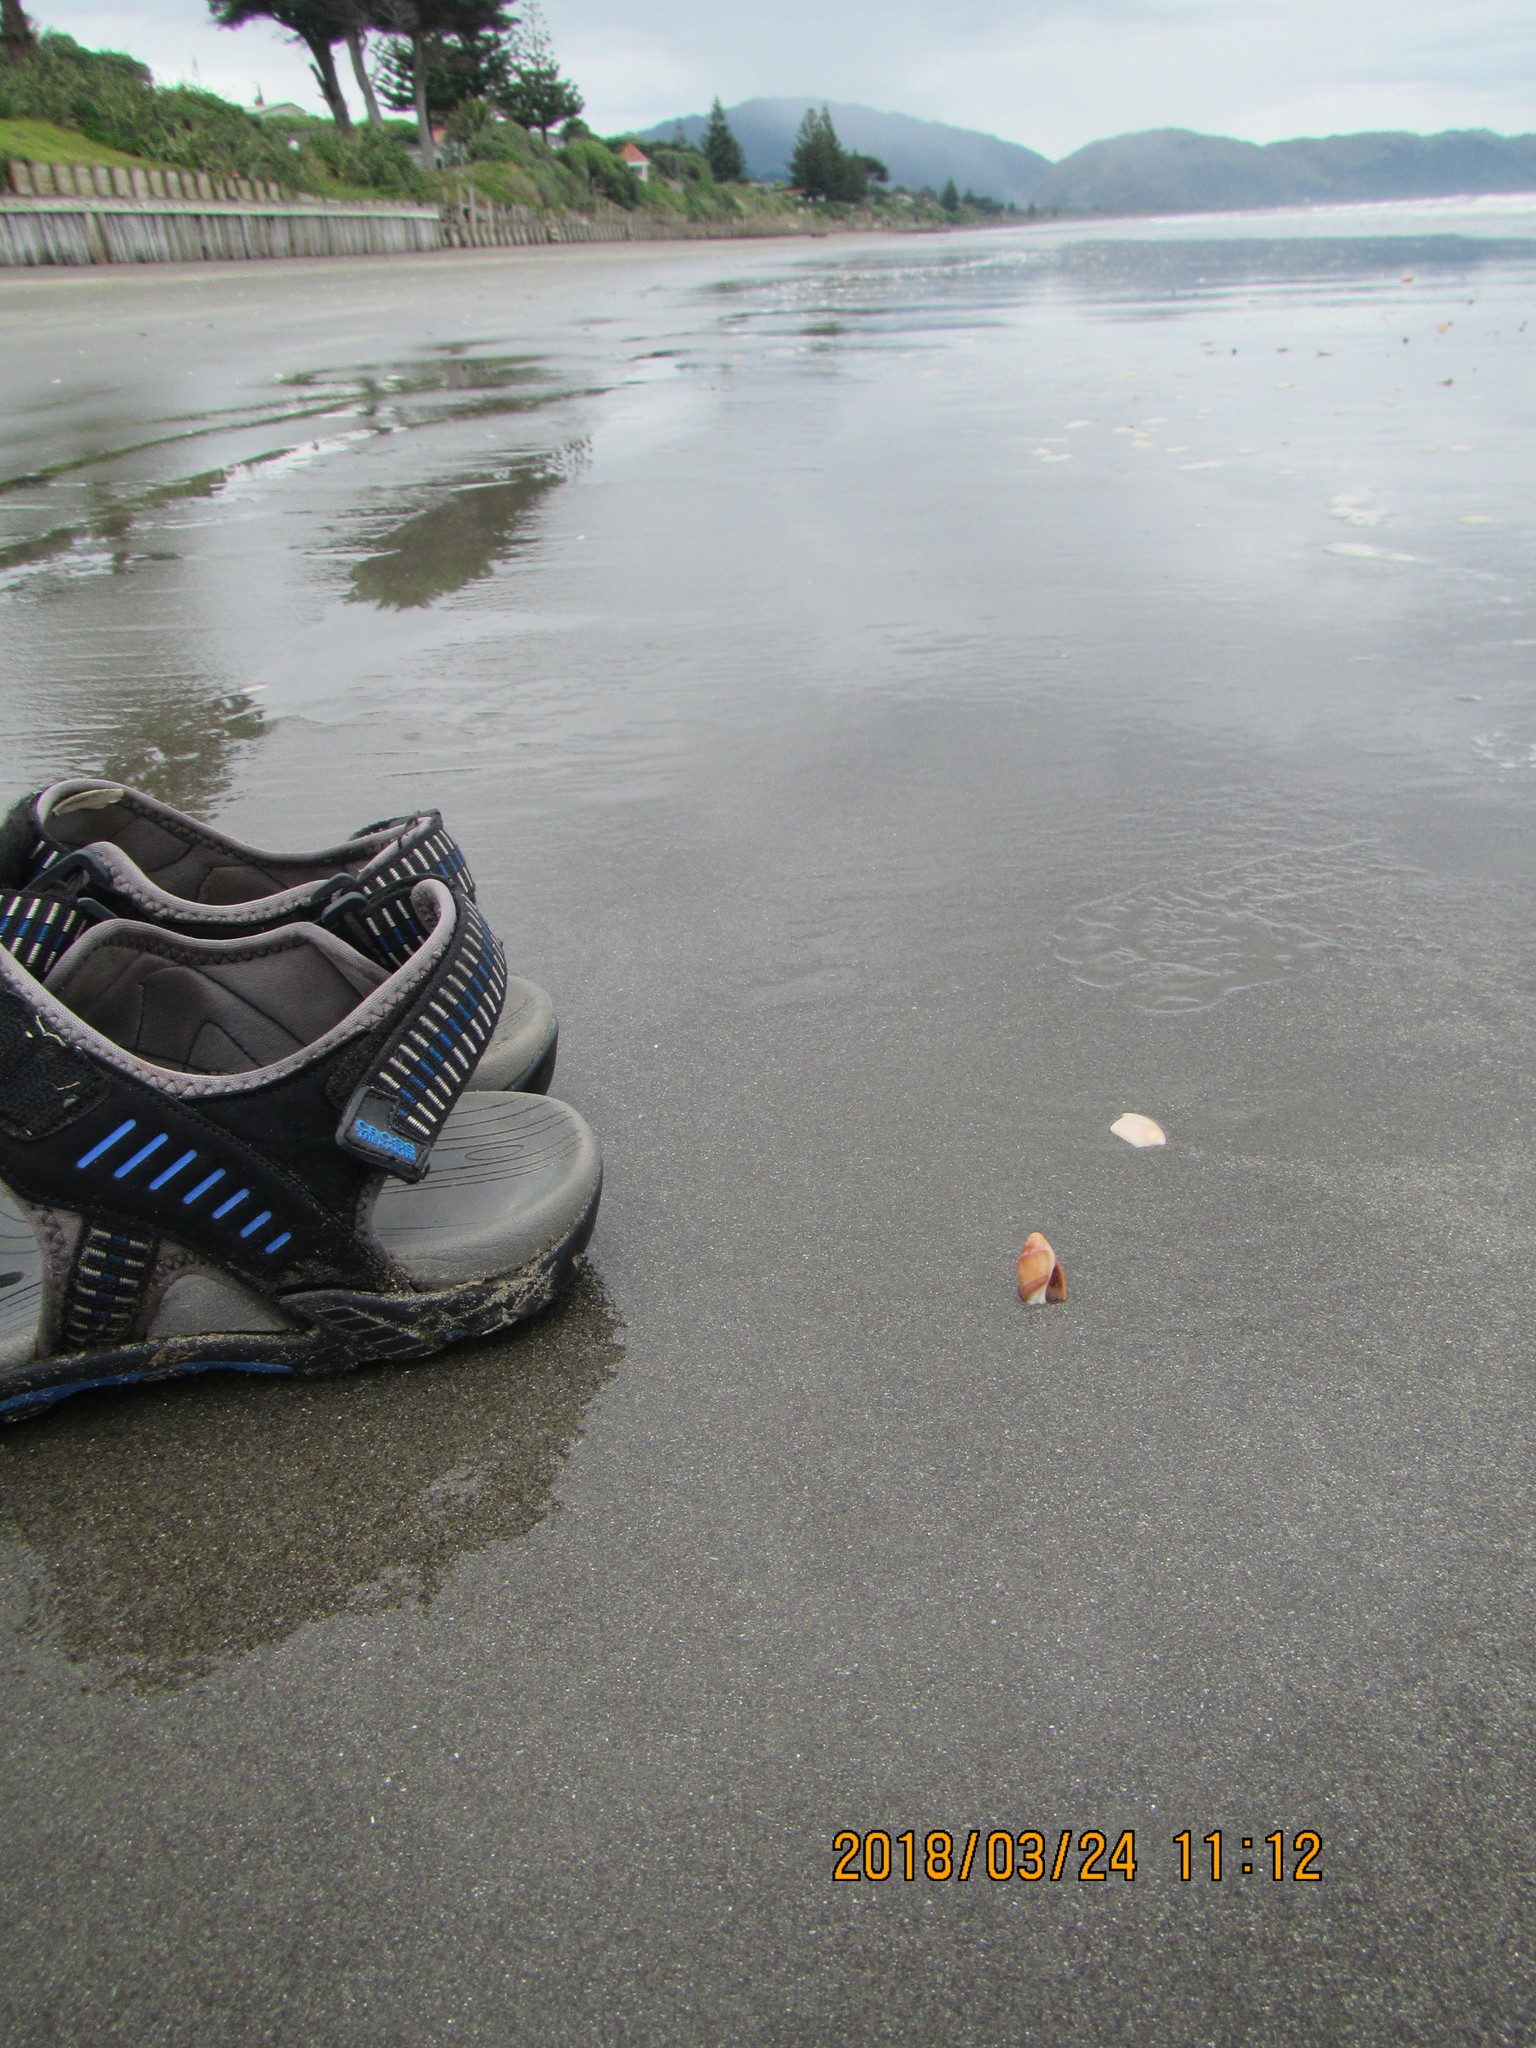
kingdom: Animalia
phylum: Mollusca
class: Gastropoda
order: Neogastropoda
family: Ancillariidae
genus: Amalda
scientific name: Amalda australis
